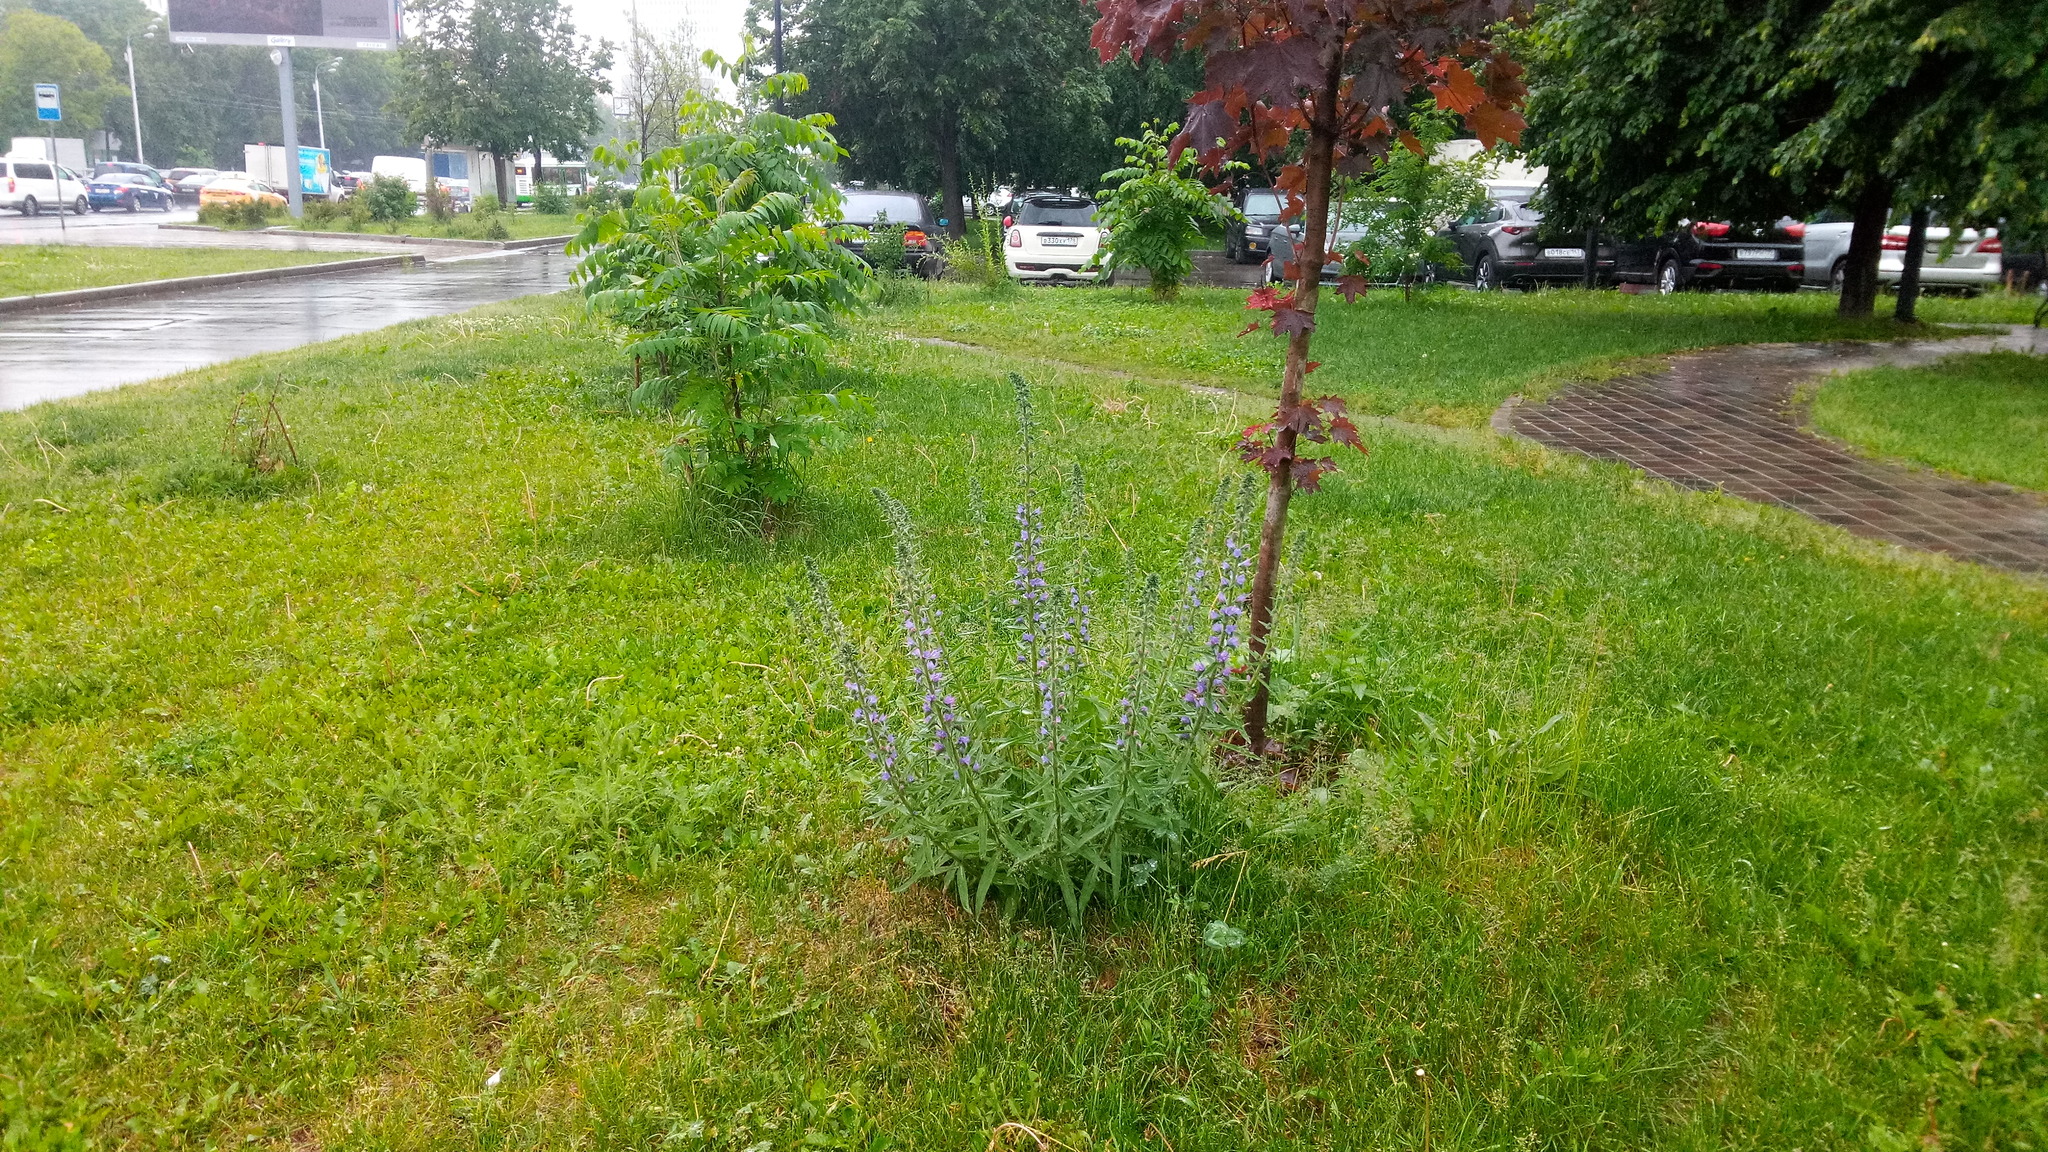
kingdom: Plantae
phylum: Tracheophyta
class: Magnoliopsida
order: Boraginales
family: Boraginaceae
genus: Echium
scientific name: Echium vulgare
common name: Common viper's bugloss
